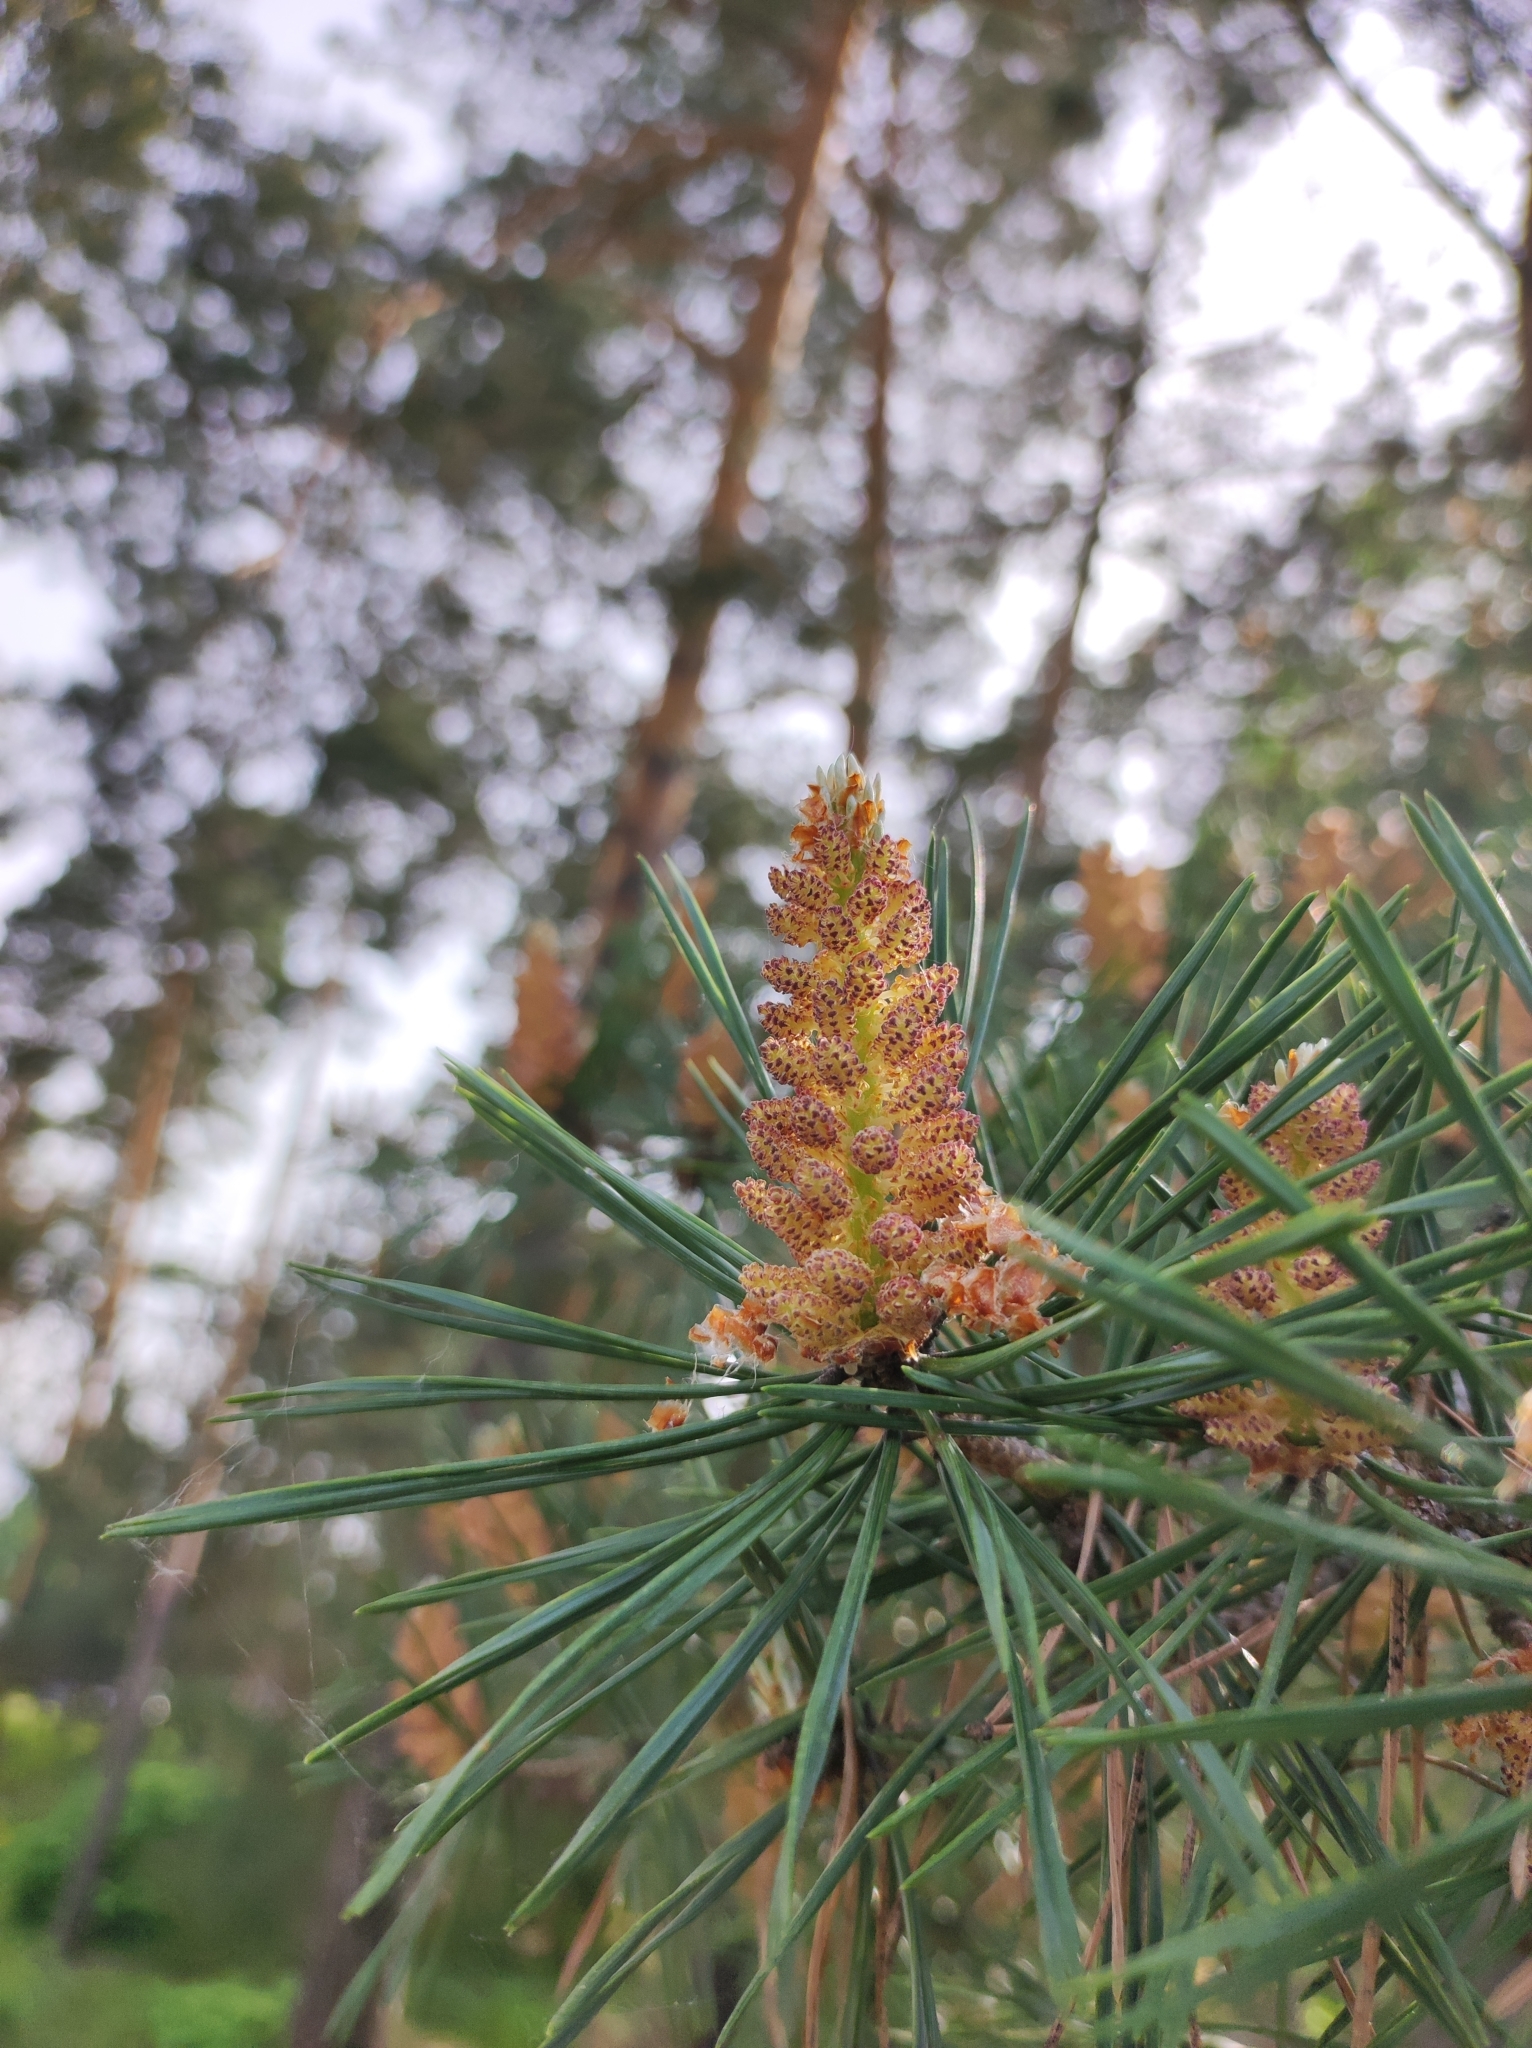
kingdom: Plantae
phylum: Tracheophyta
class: Pinopsida
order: Pinales
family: Pinaceae
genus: Pinus
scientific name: Pinus sylvestris
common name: Scots pine
